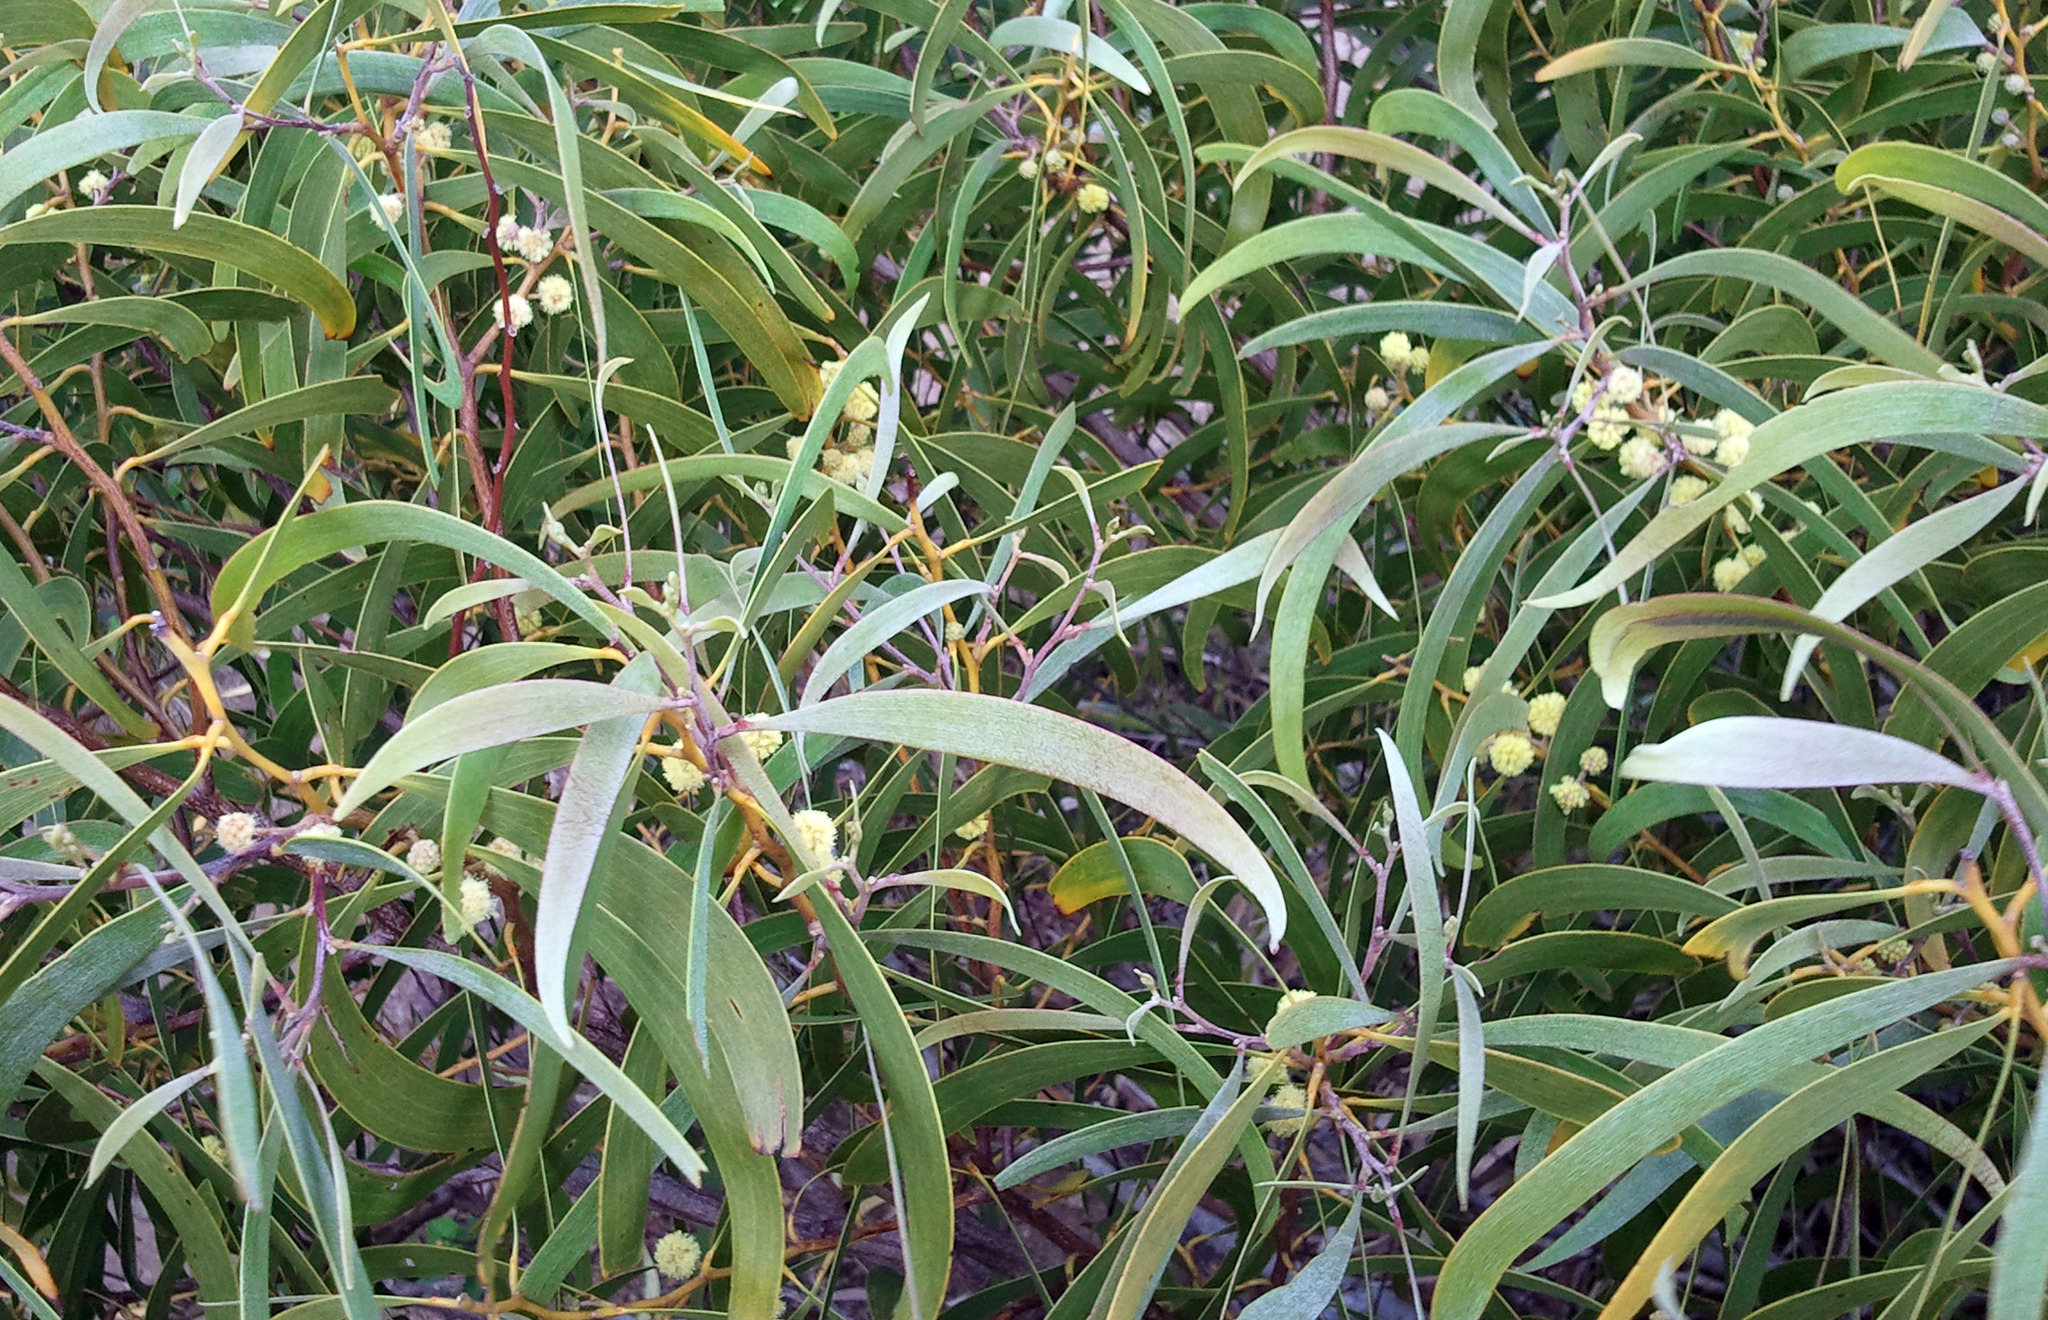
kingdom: Plantae
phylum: Tracheophyta
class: Magnoliopsida
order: Fabales
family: Fabaceae
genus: Acacia
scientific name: Acacia koa
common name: Gray koa
